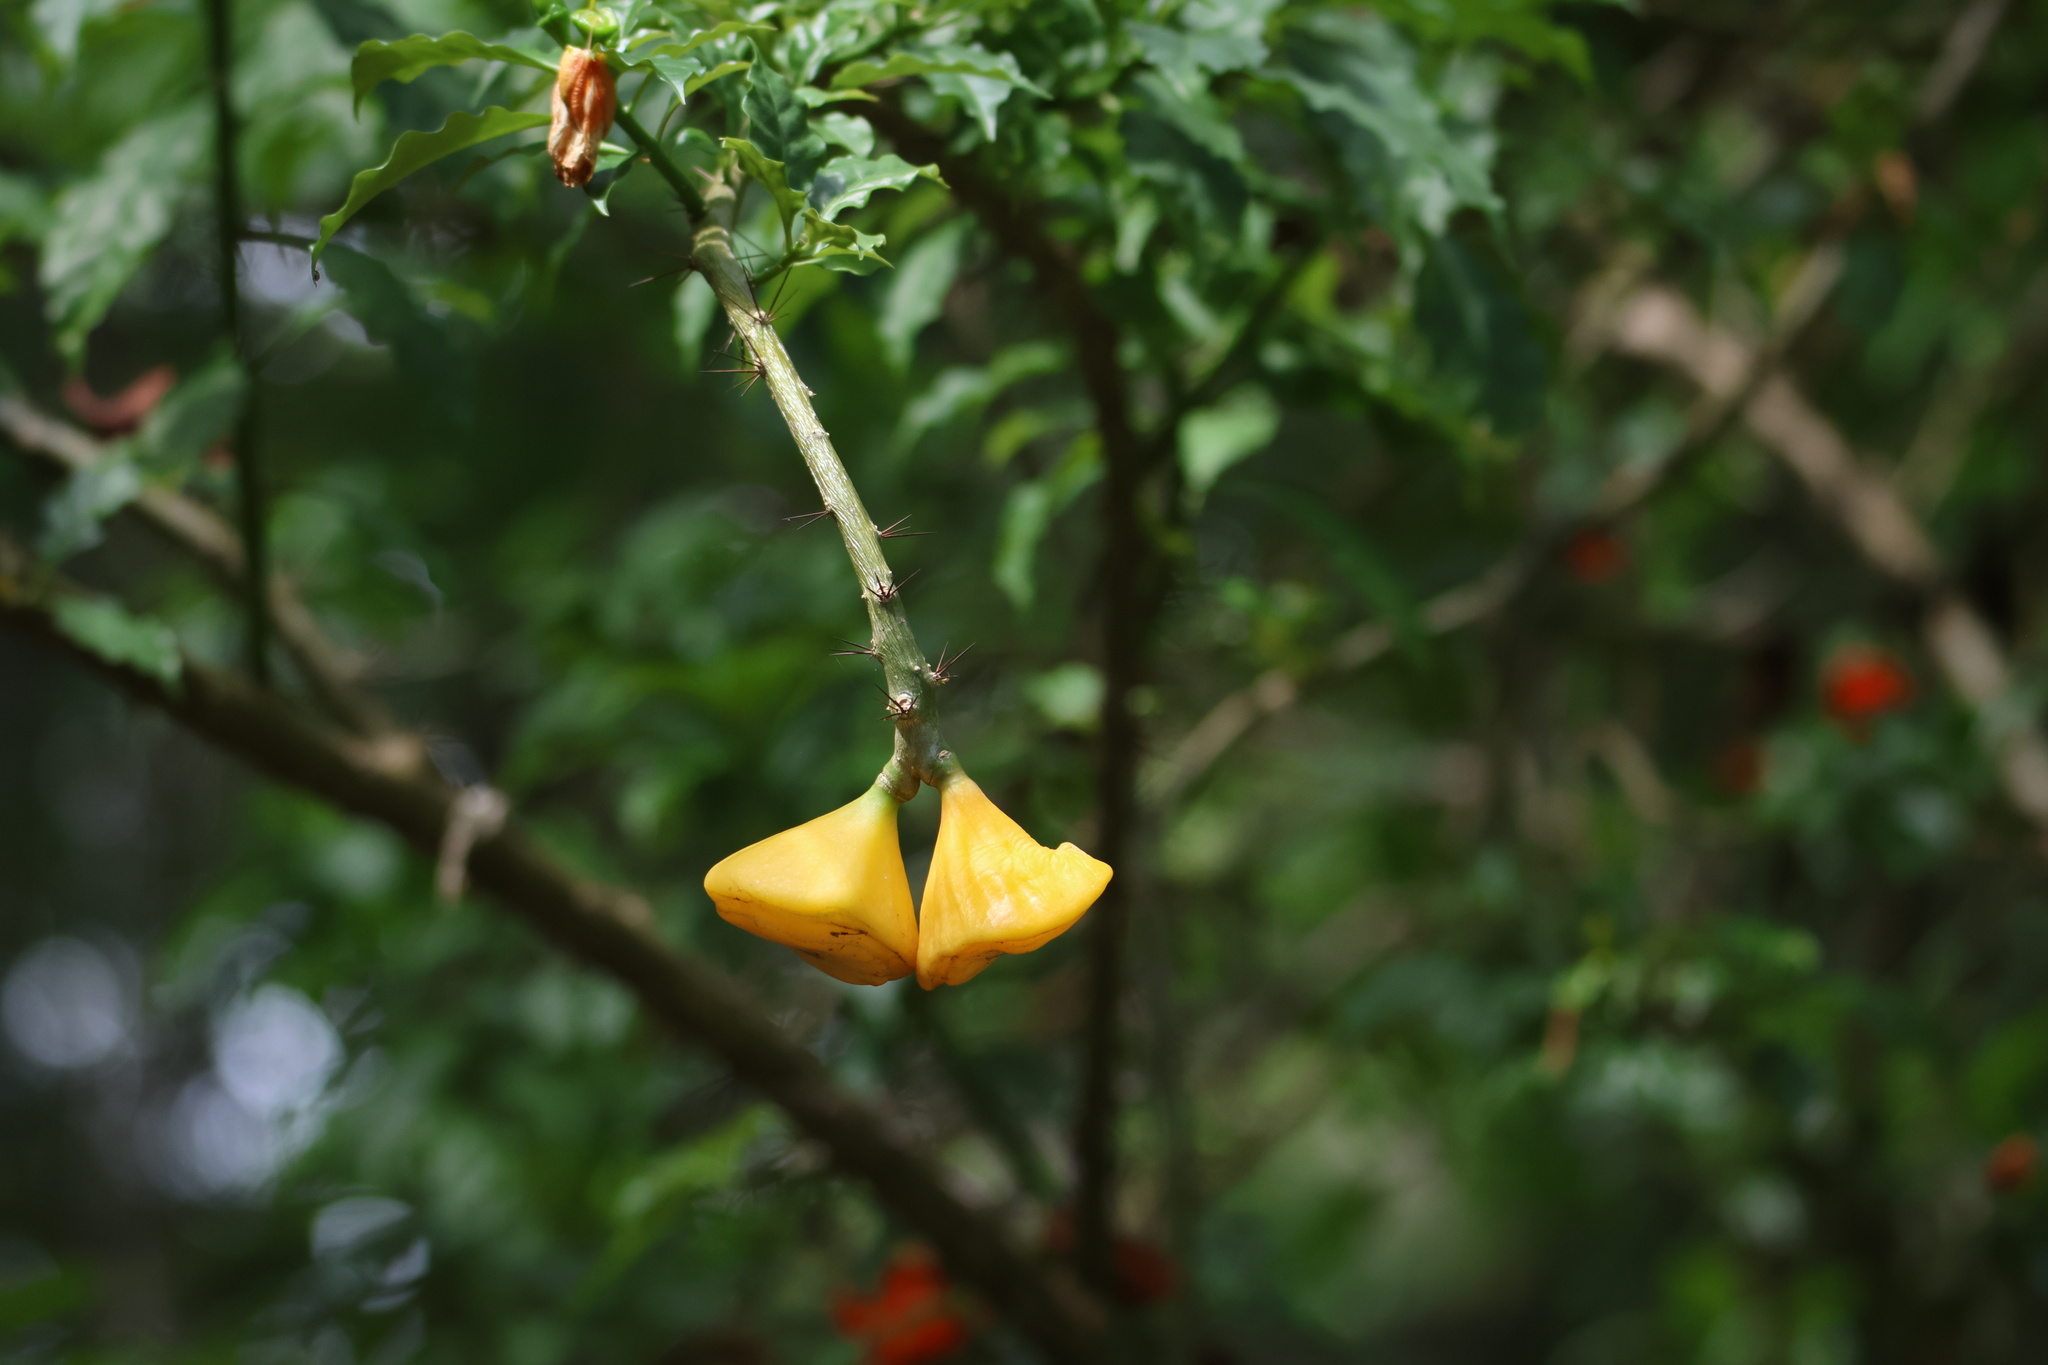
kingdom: Plantae
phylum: Tracheophyta
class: Magnoliopsida
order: Caryophyllales
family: Cactaceae
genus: Leuenbergeria
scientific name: Leuenbergeria bleo
